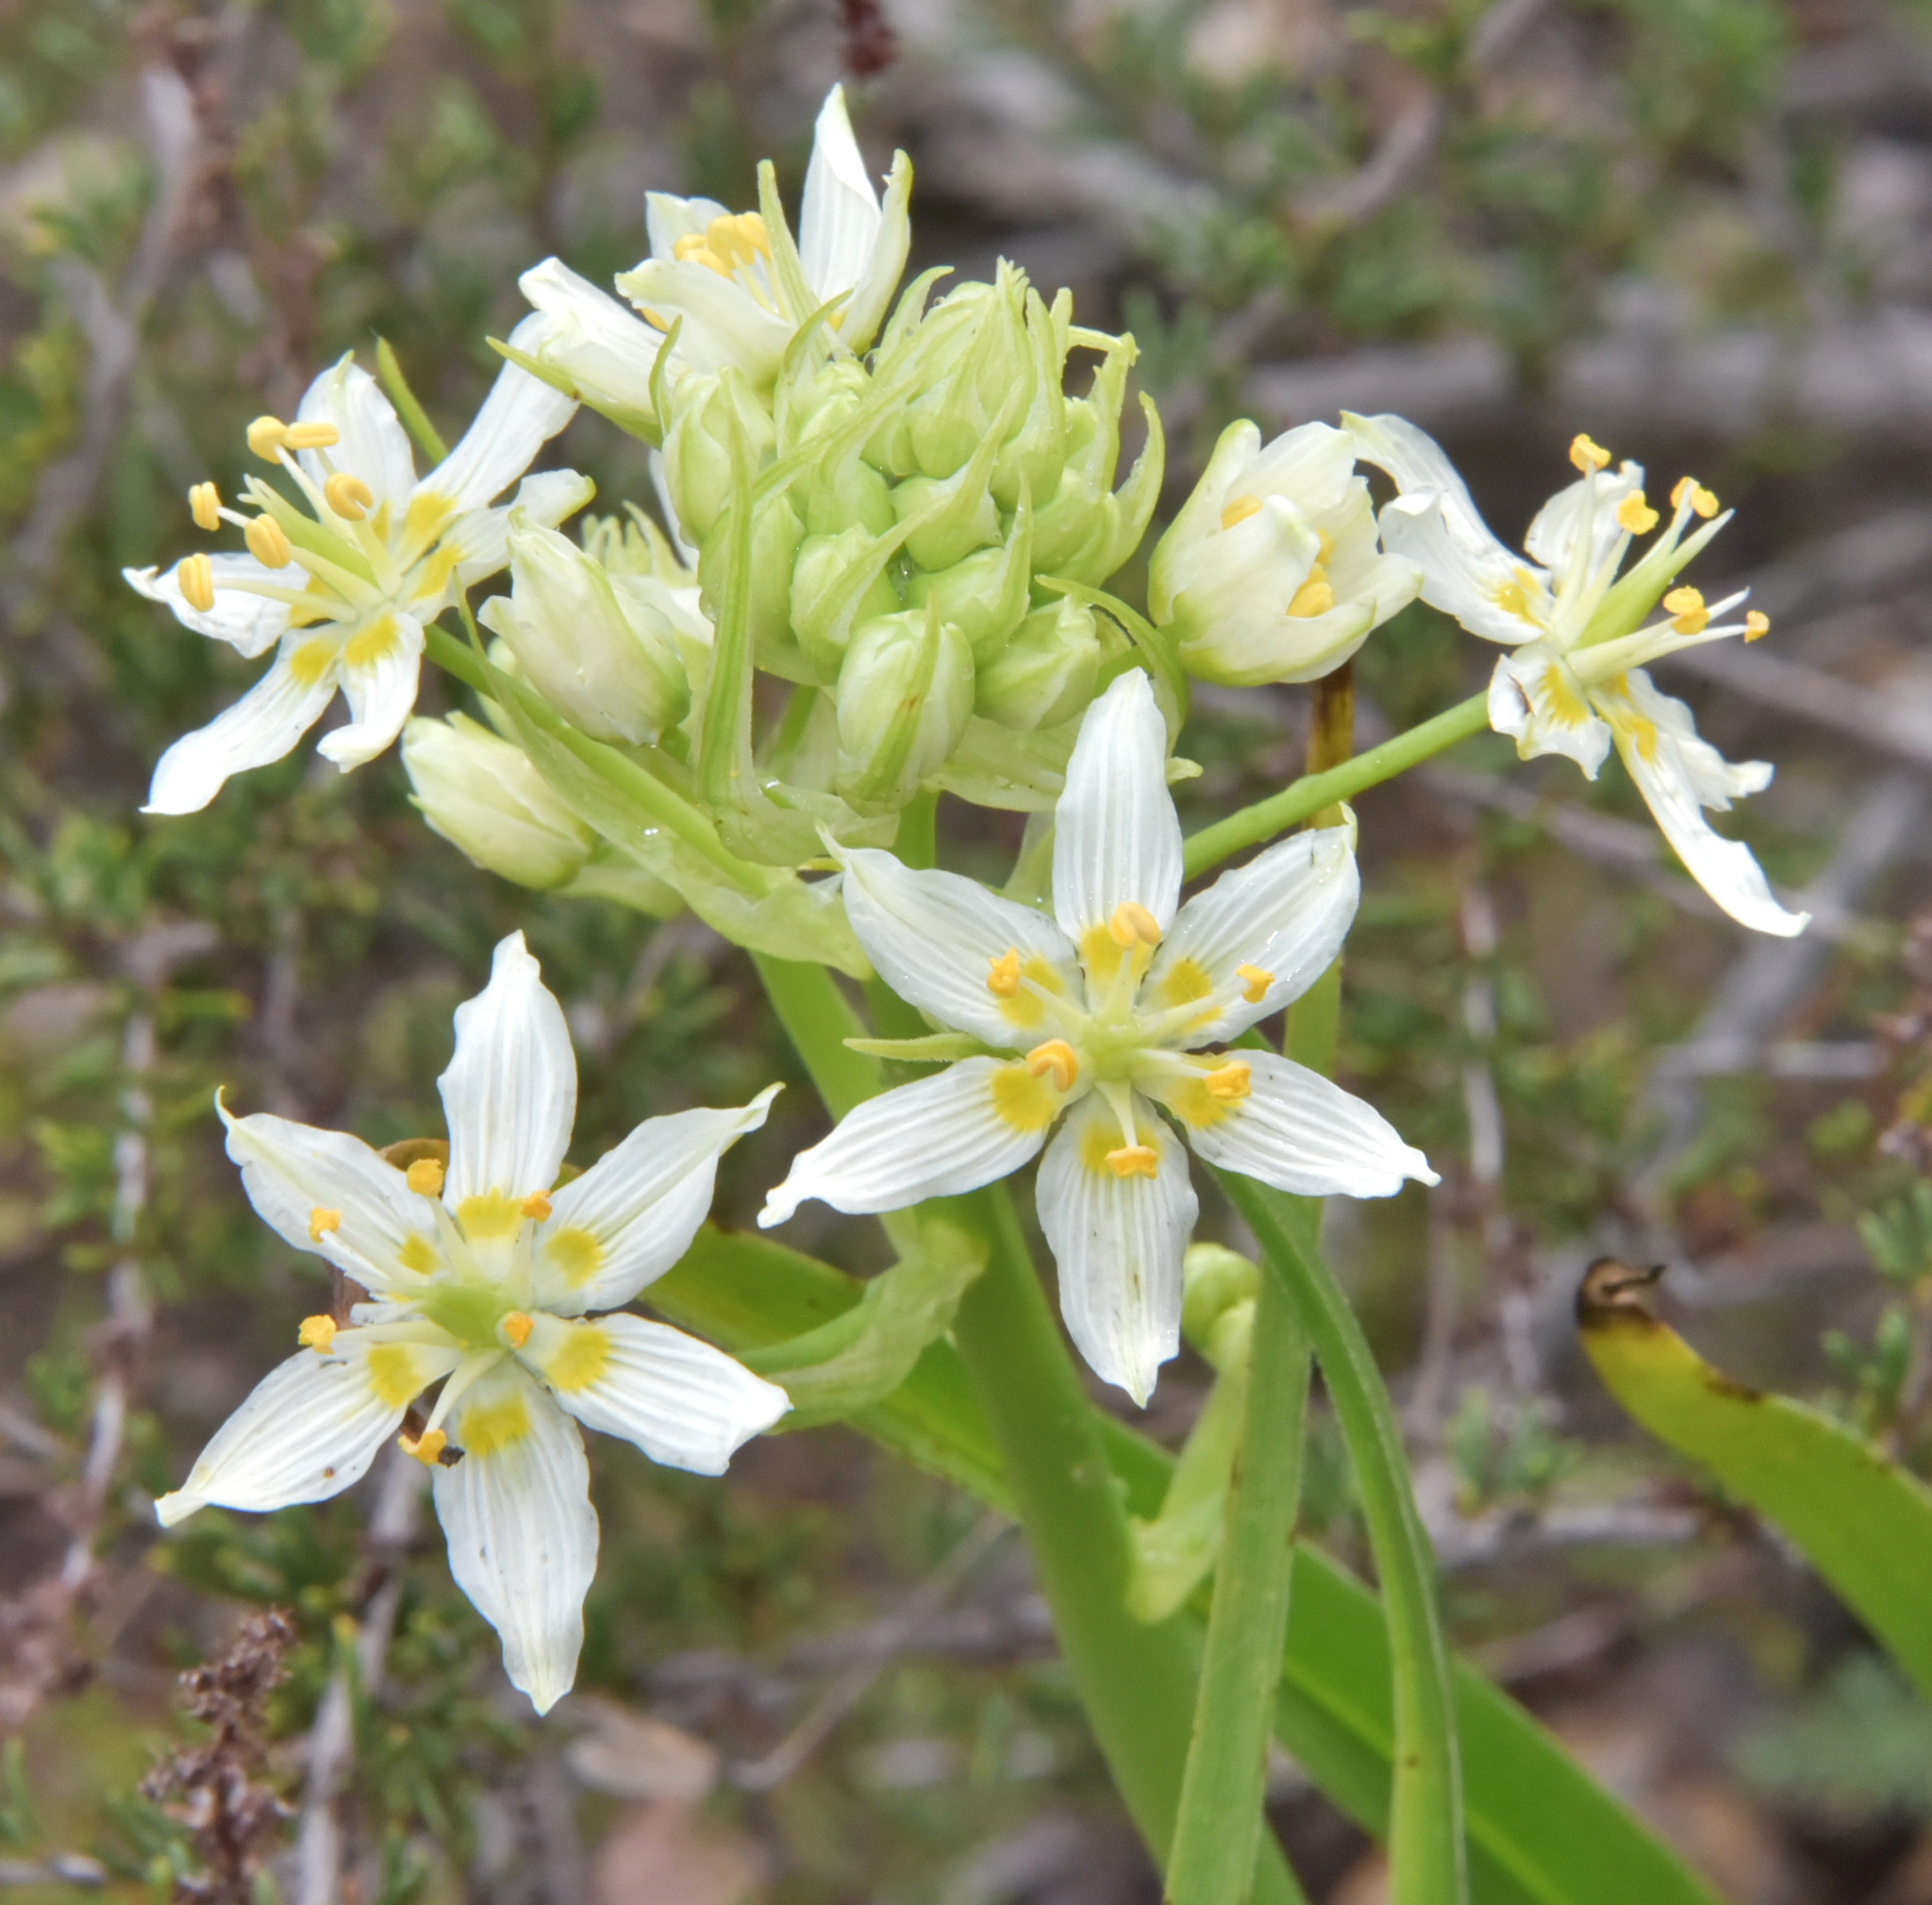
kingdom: Plantae
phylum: Tracheophyta
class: Liliopsida
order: Liliales
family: Melanthiaceae
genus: Toxicoscordion
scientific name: Toxicoscordion fremontii
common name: Fremont's death camas
